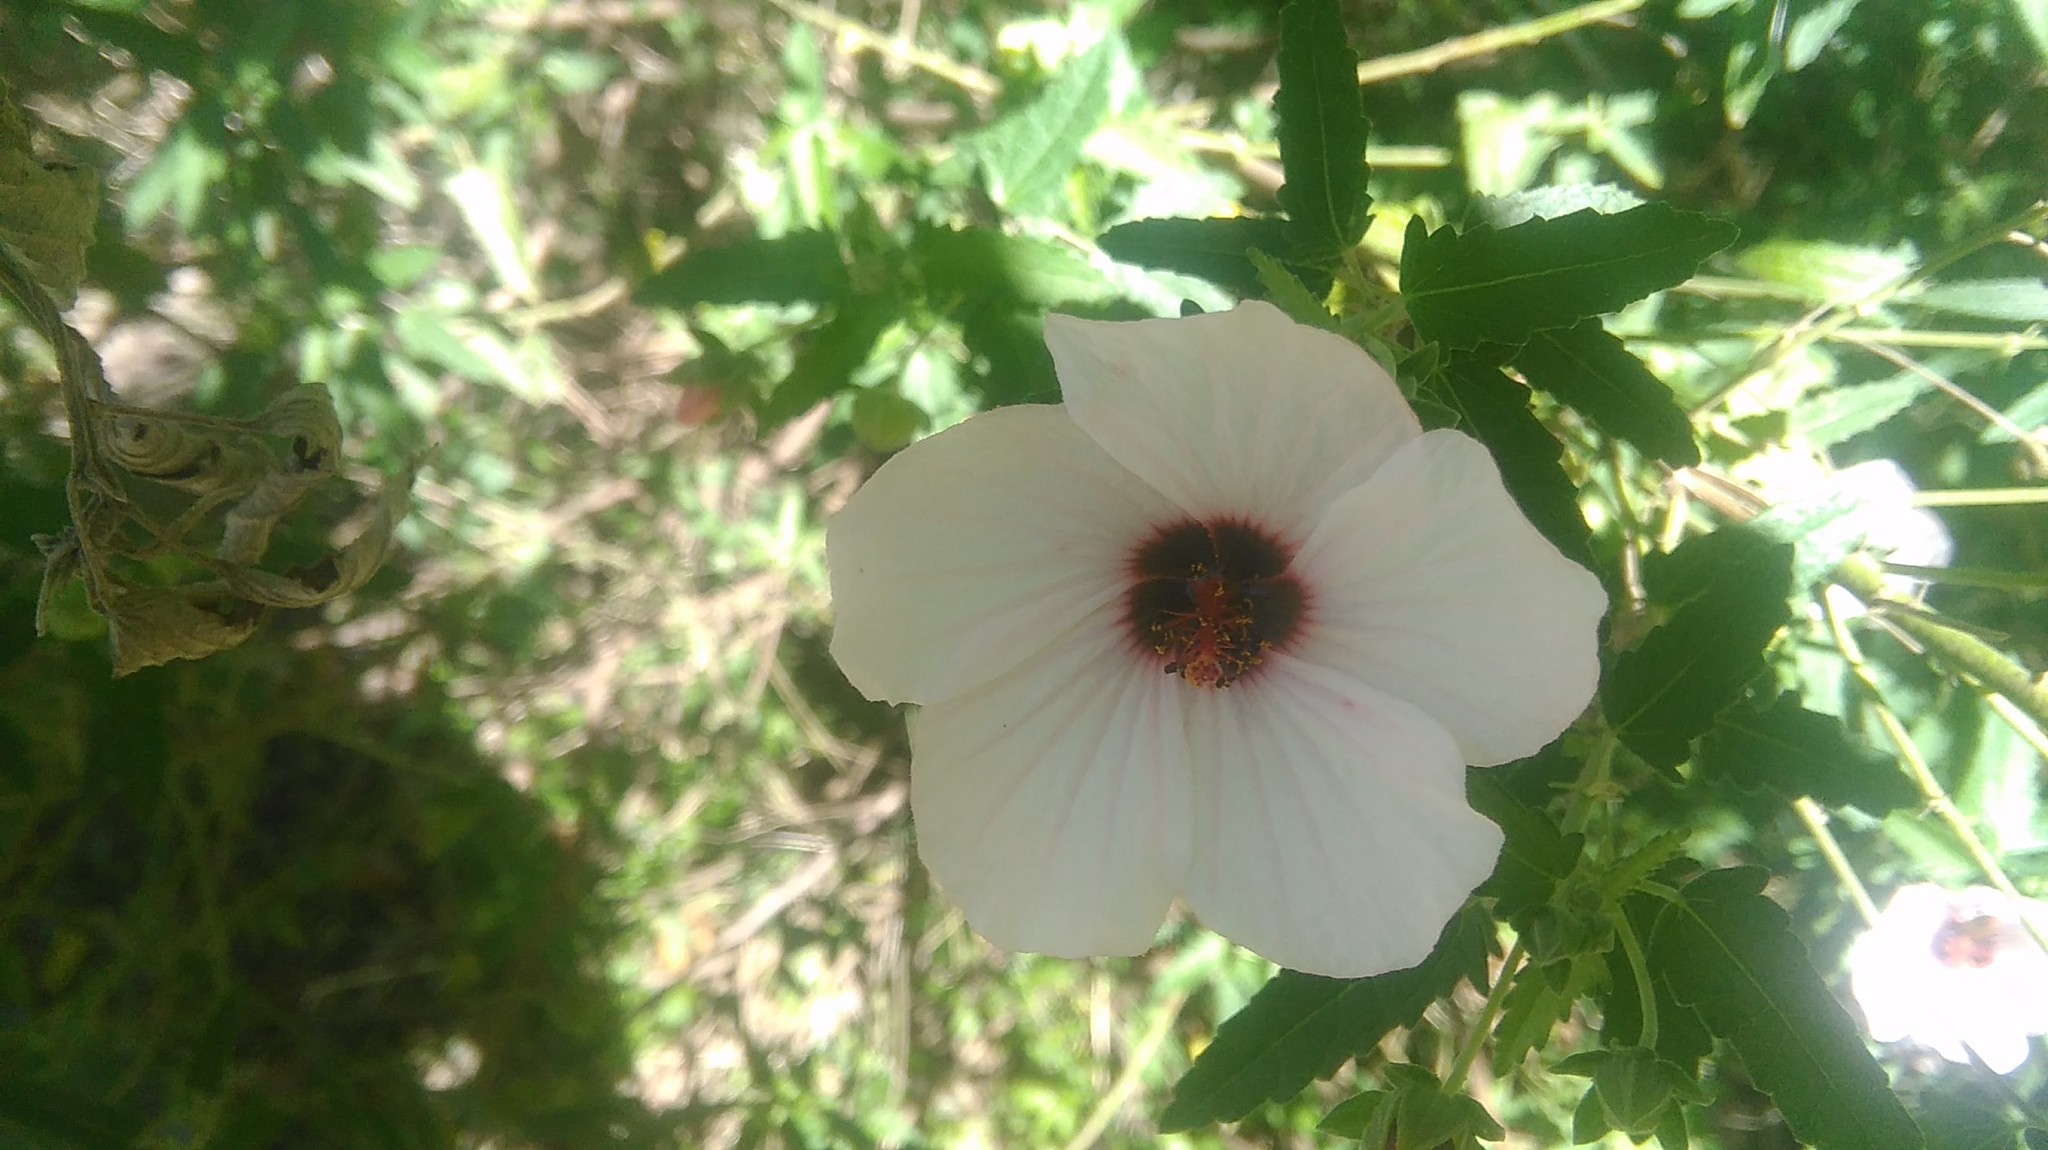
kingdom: Plantae
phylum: Tracheophyta
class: Magnoliopsida
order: Malvales
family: Malvaceae
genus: Pavonia
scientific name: Pavonia hastata
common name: Spearleaf swampmallow
